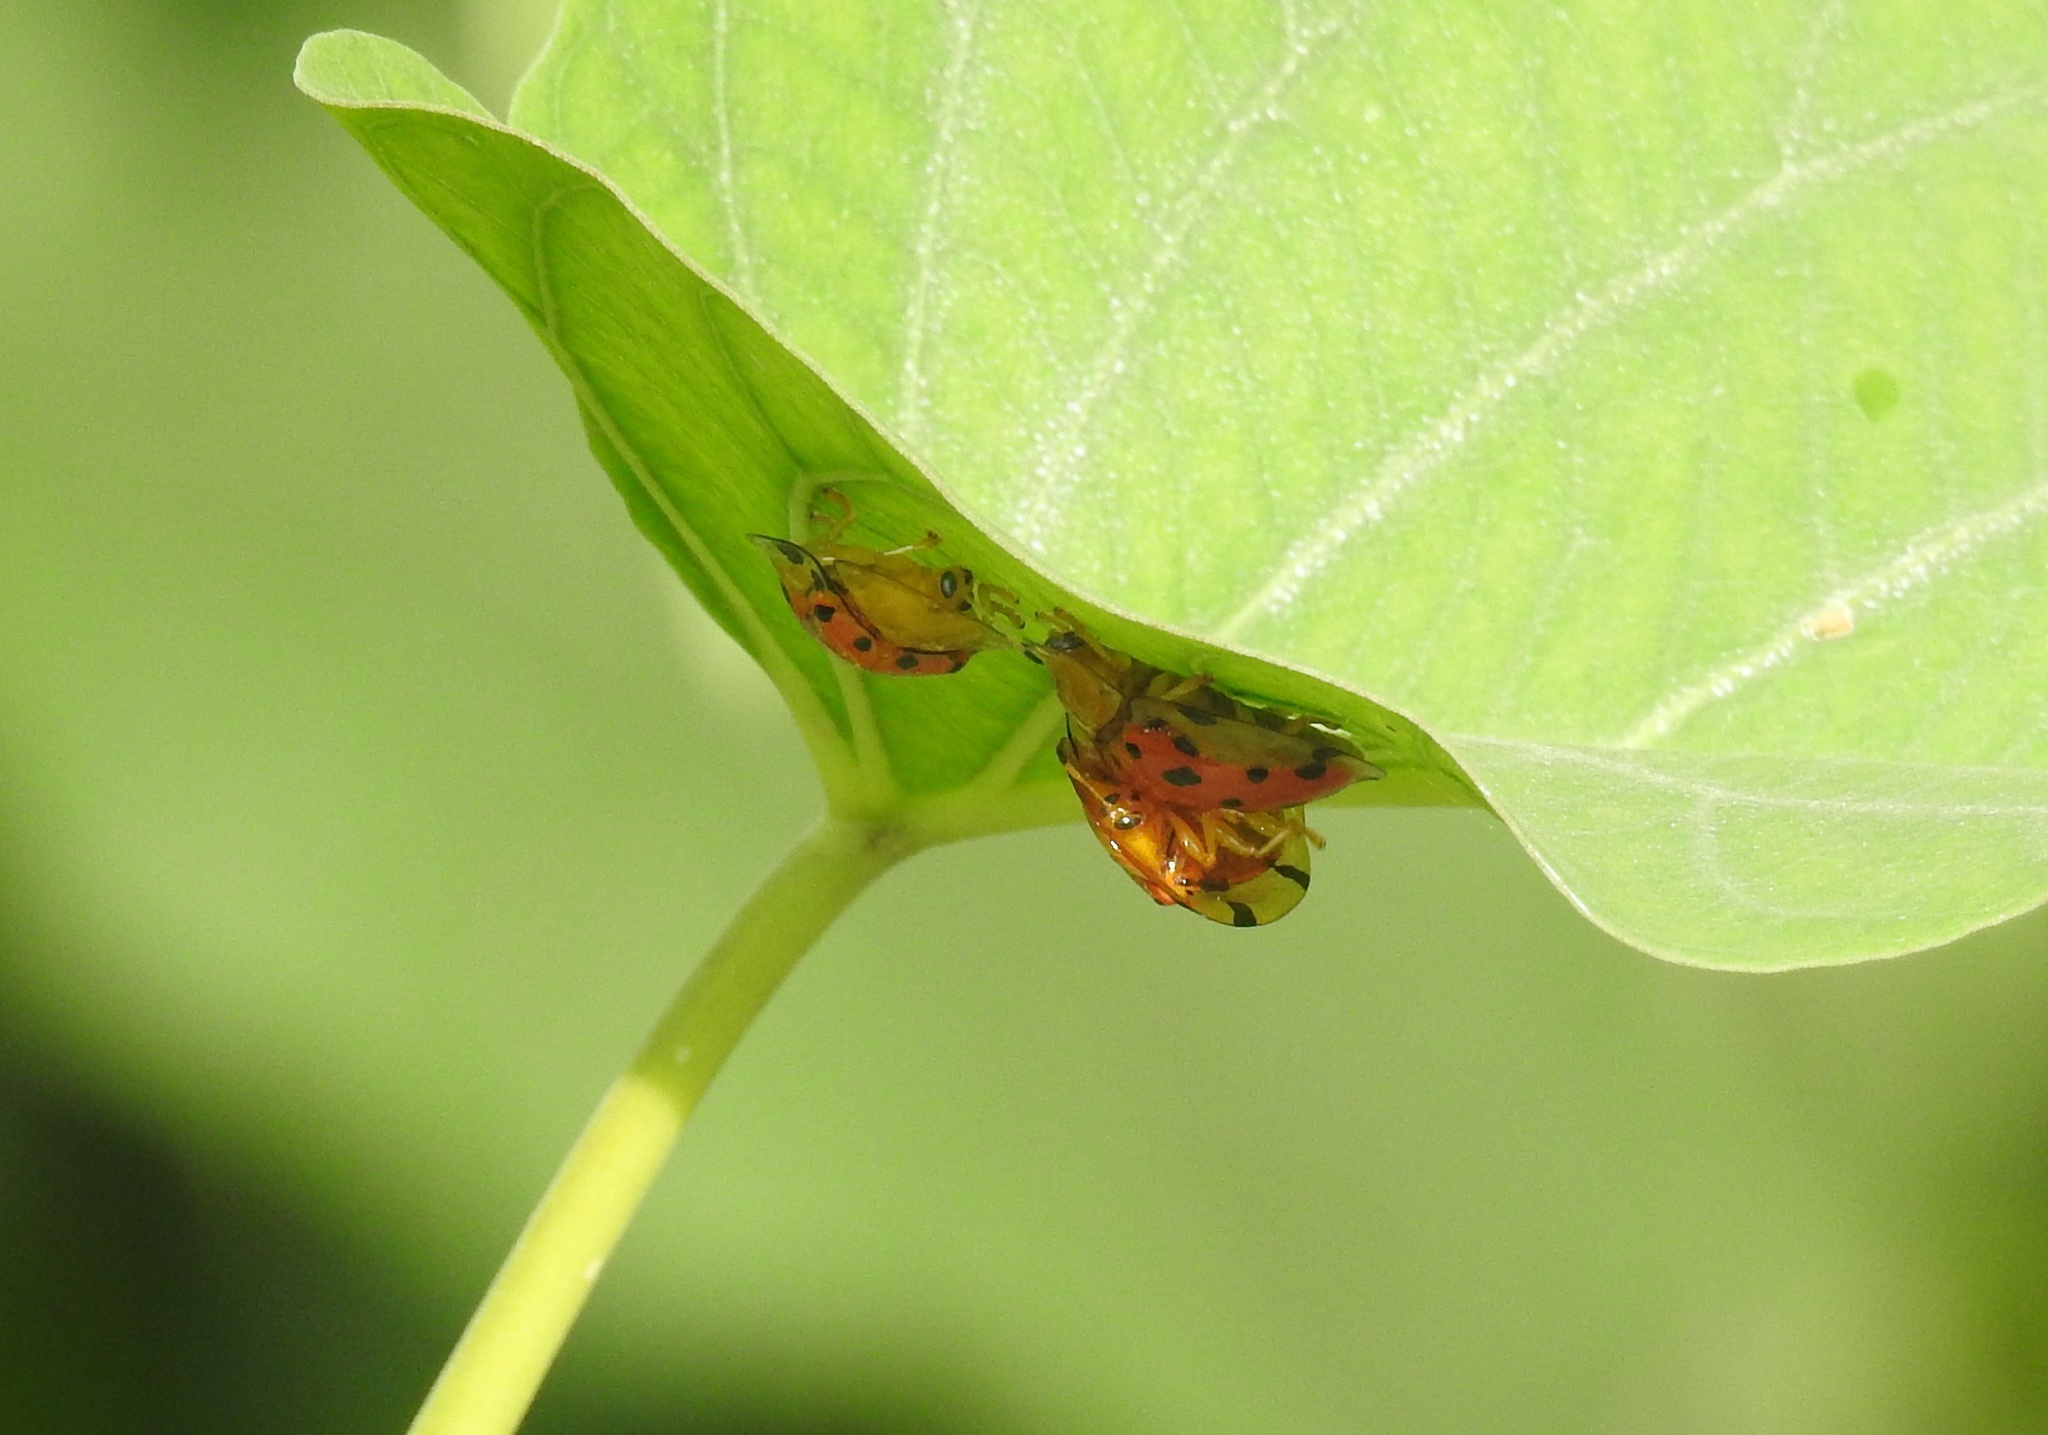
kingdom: Animalia
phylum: Arthropoda
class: Insecta
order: Coleoptera
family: Chrysomelidae
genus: Aspidimorpha
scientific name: Aspidimorpha miliaris
